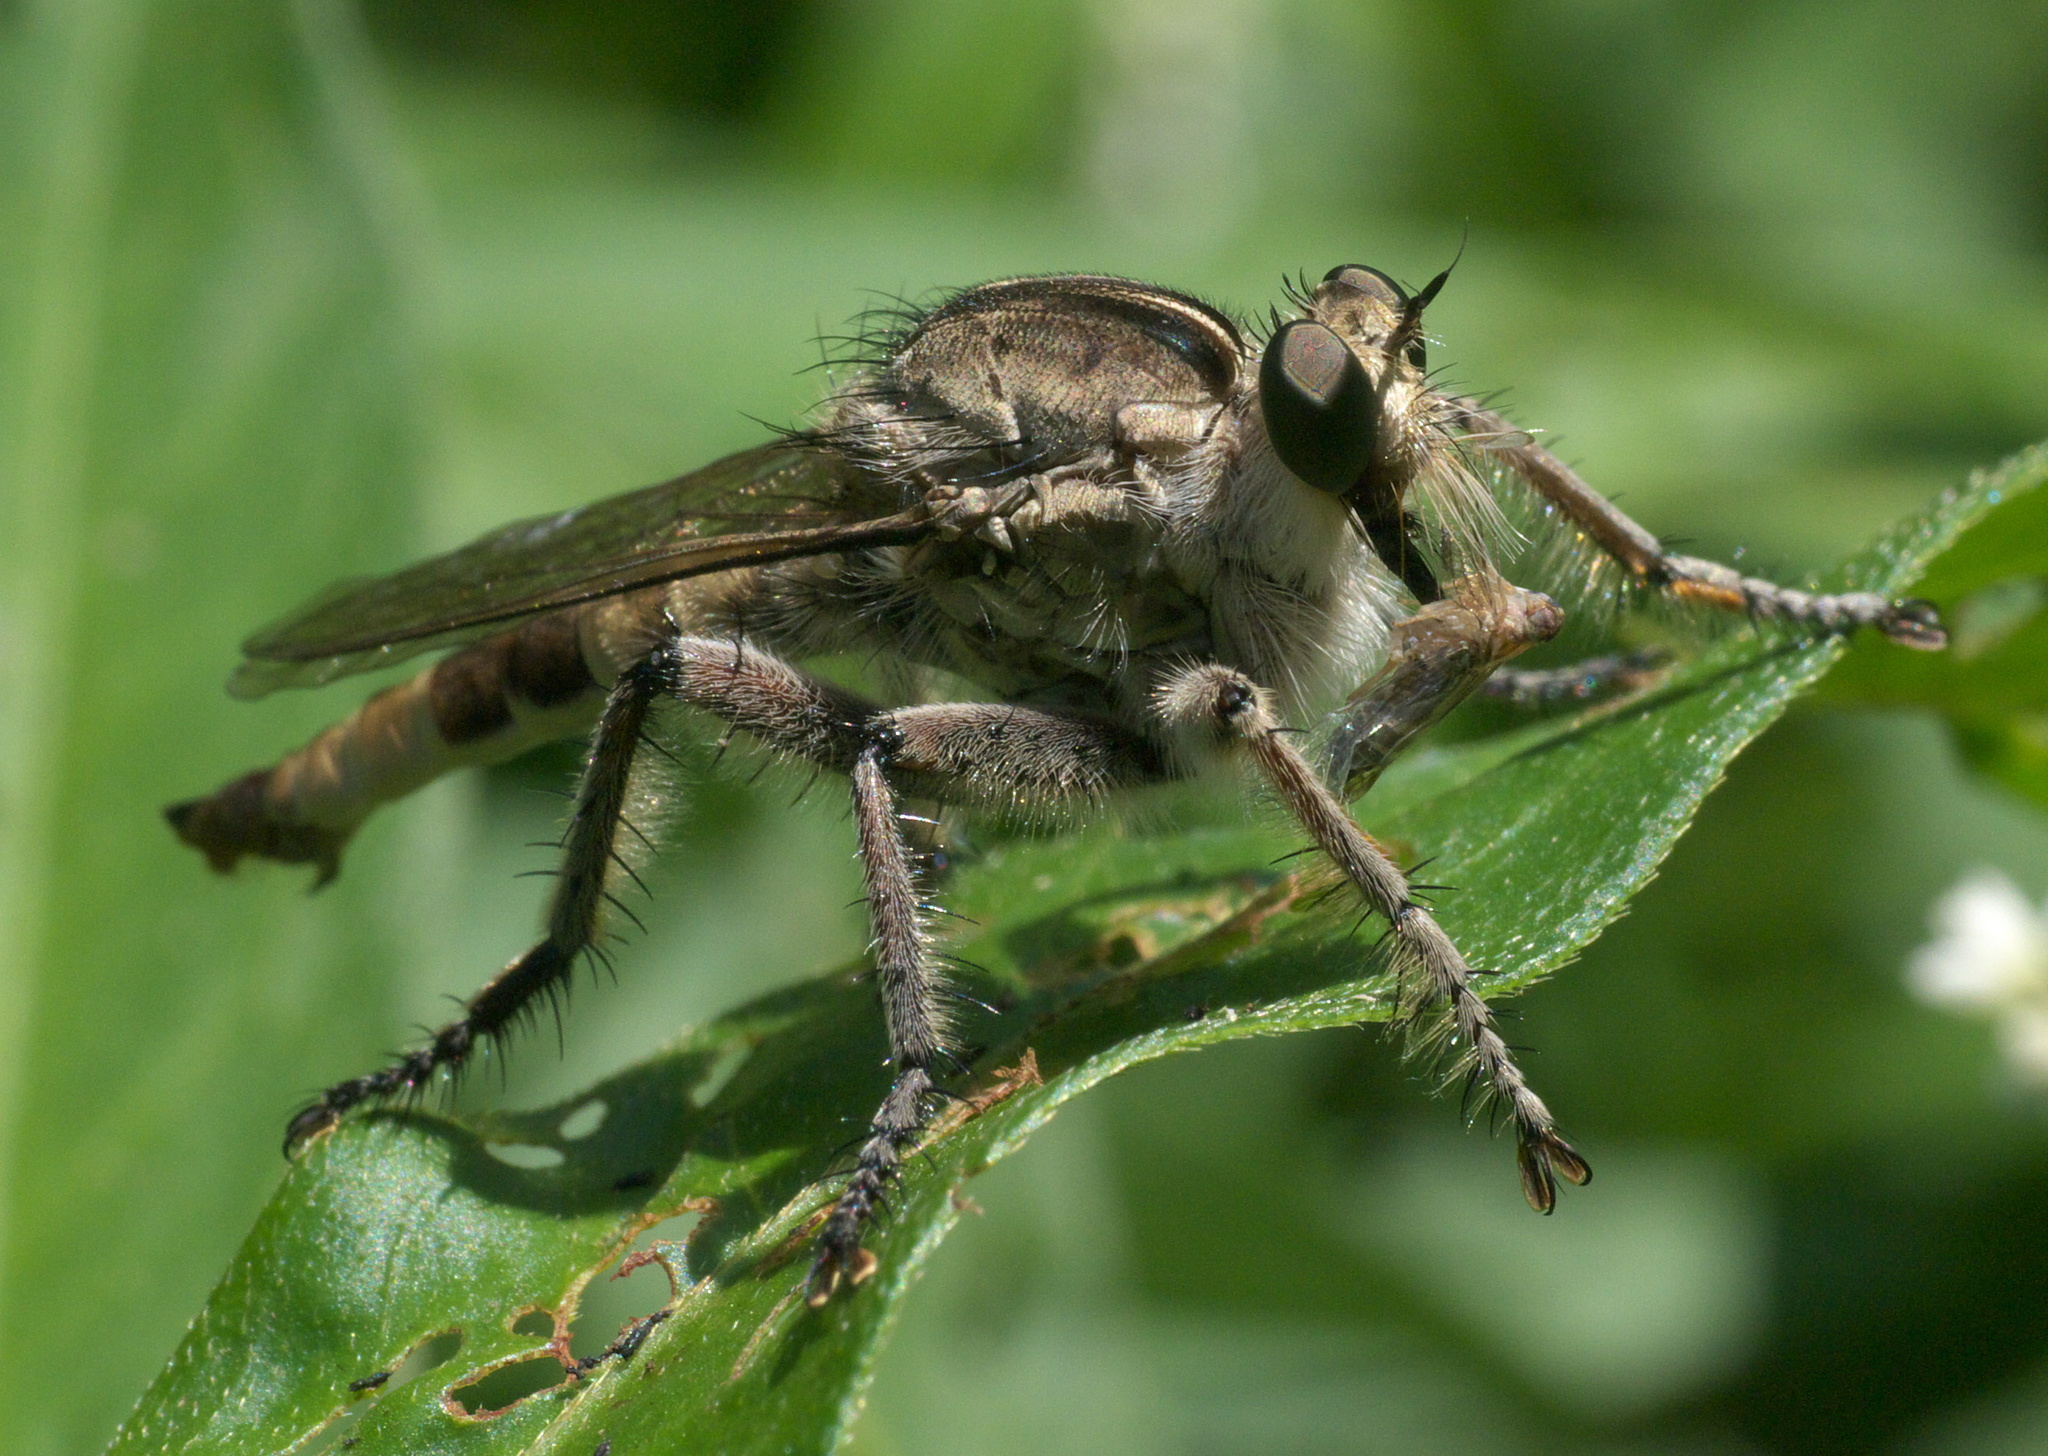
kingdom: Animalia
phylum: Arthropoda
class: Insecta
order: Diptera
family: Asilidae
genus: Triorla
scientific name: Triorla interrupta
